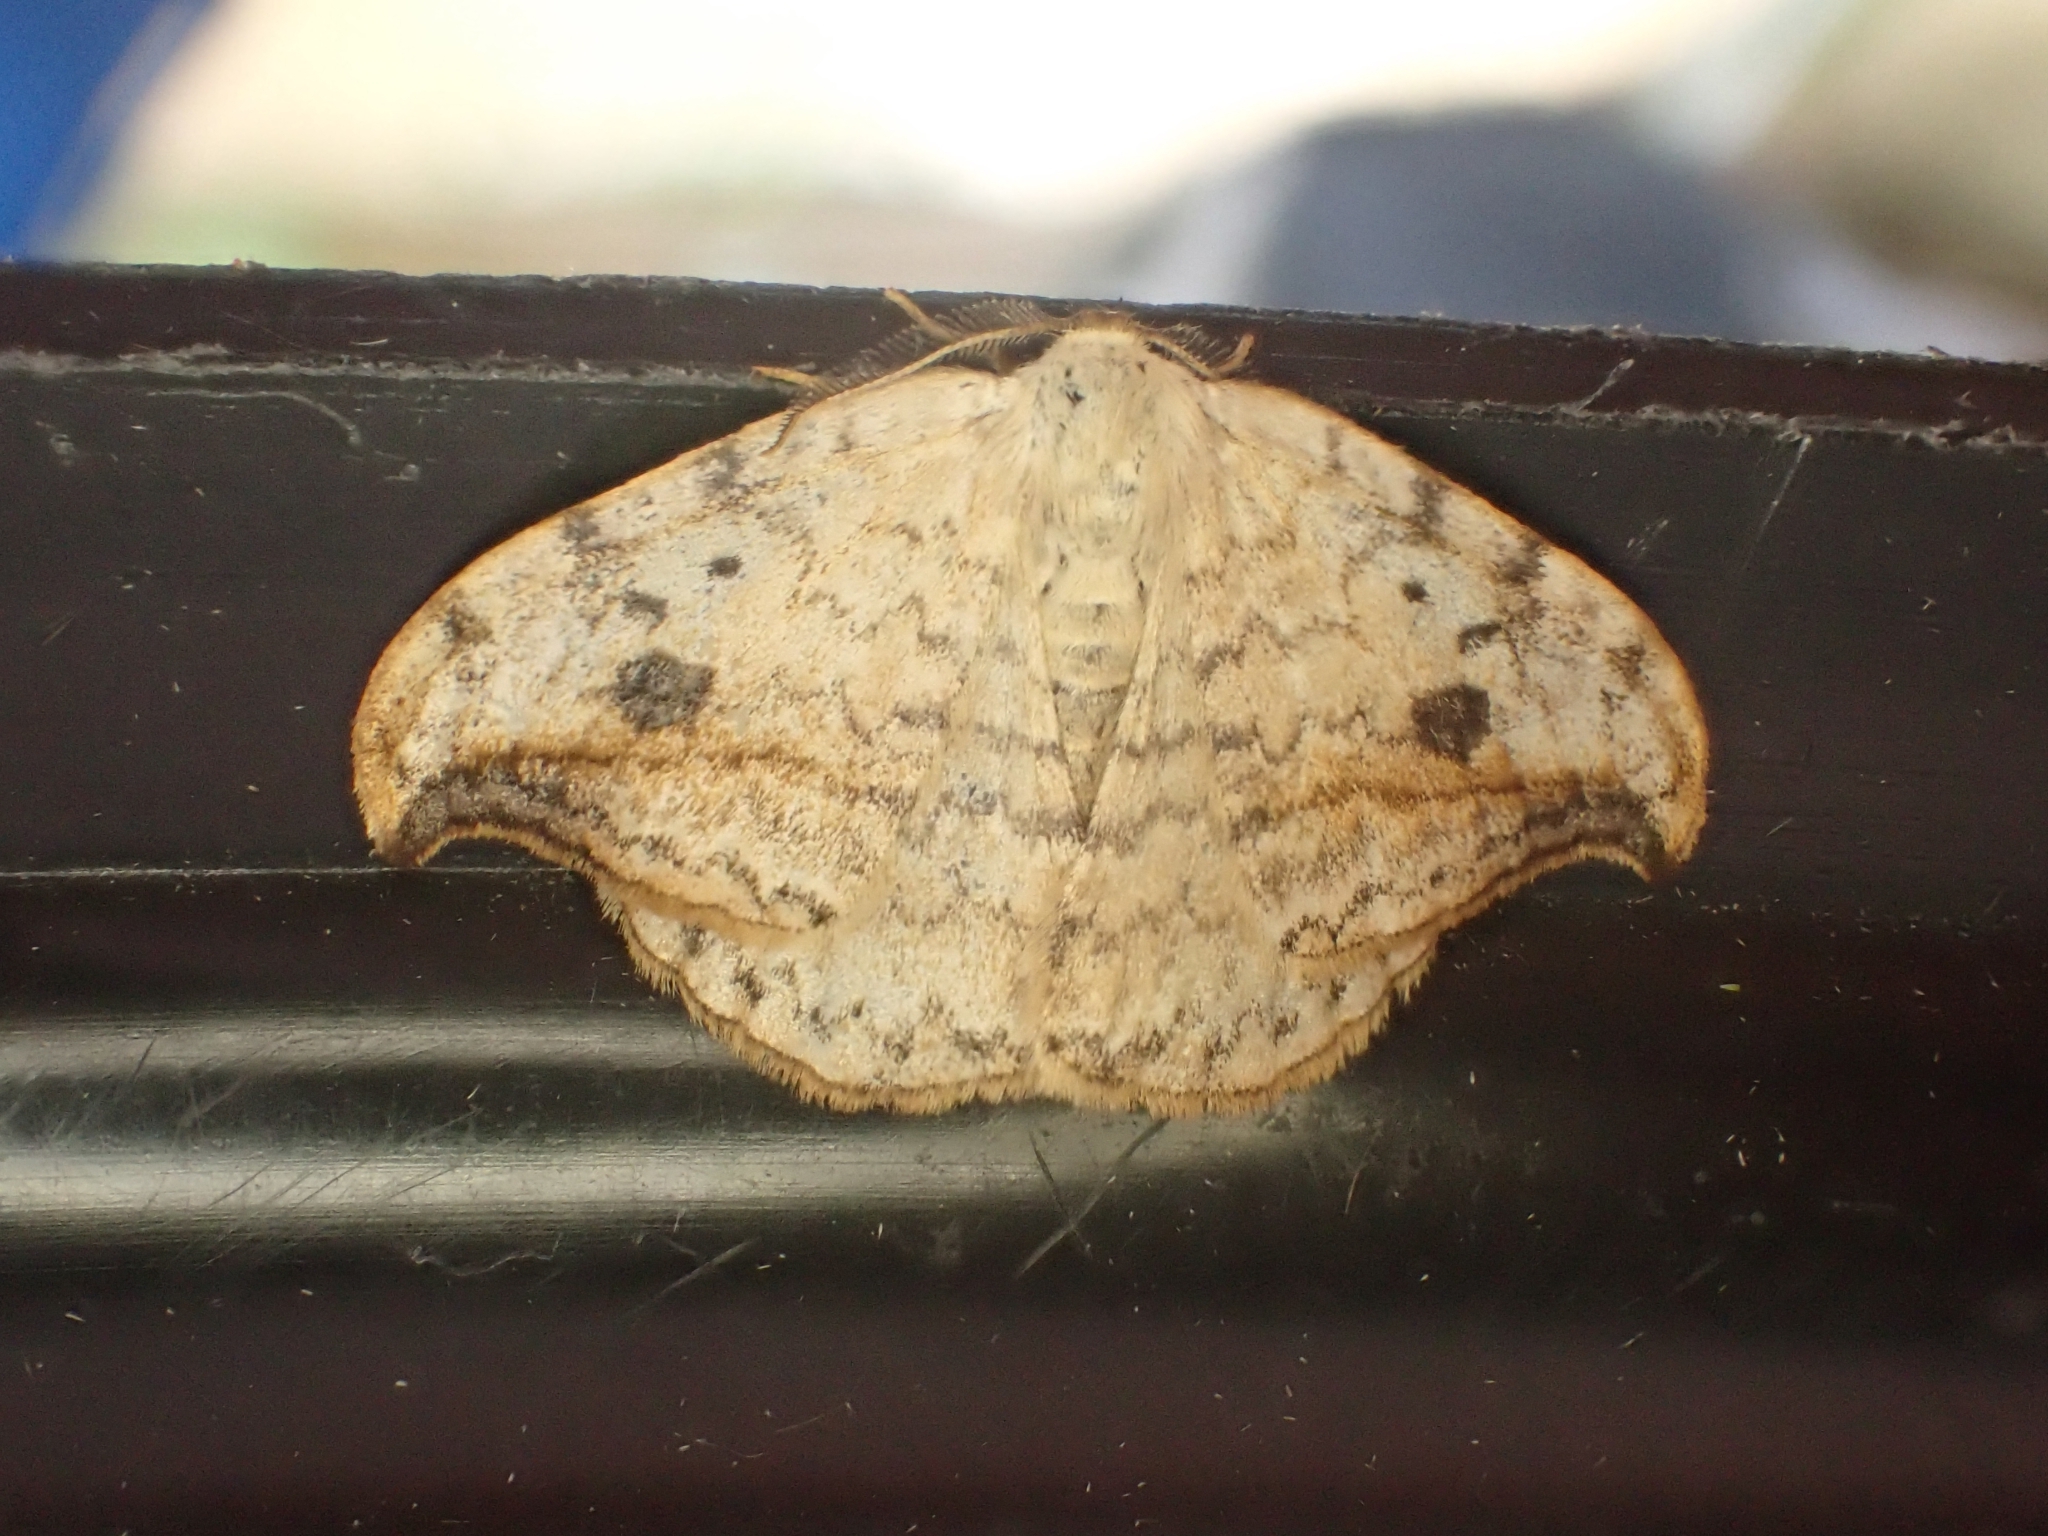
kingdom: Animalia
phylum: Arthropoda
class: Insecta
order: Lepidoptera
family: Drepanidae
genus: Drepana
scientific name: Drepana falcataria
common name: Pebble hook-tip
